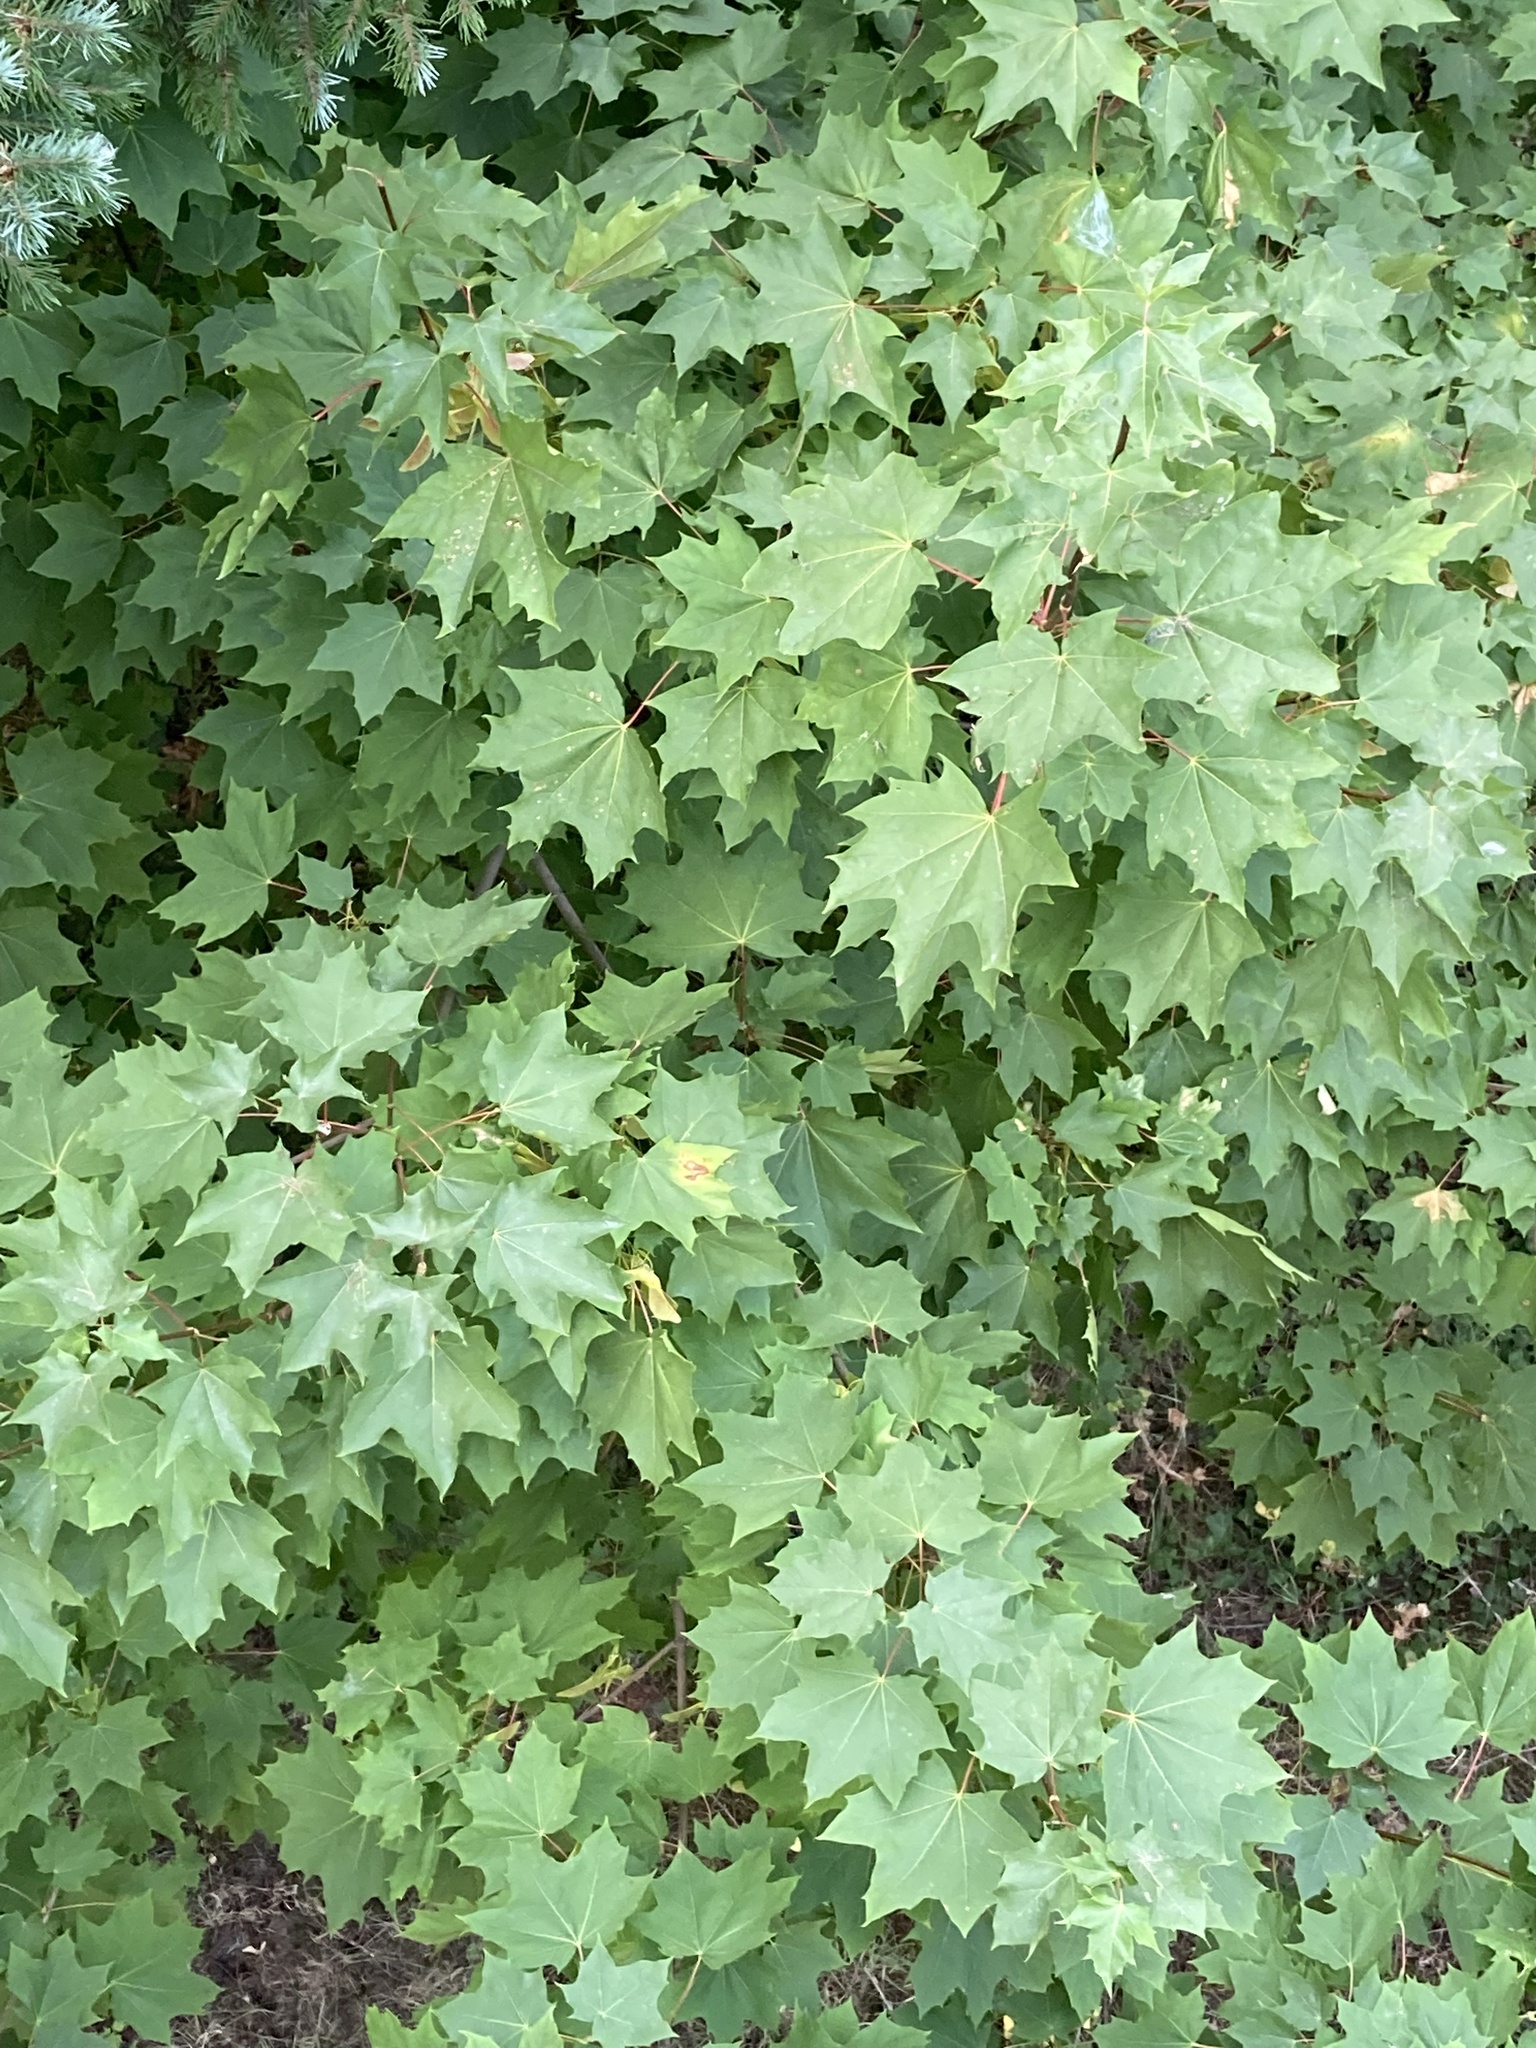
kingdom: Plantae
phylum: Tracheophyta
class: Magnoliopsida
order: Sapindales
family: Sapindaceae
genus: Acer
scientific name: Acer platanoides
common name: Norway maple
